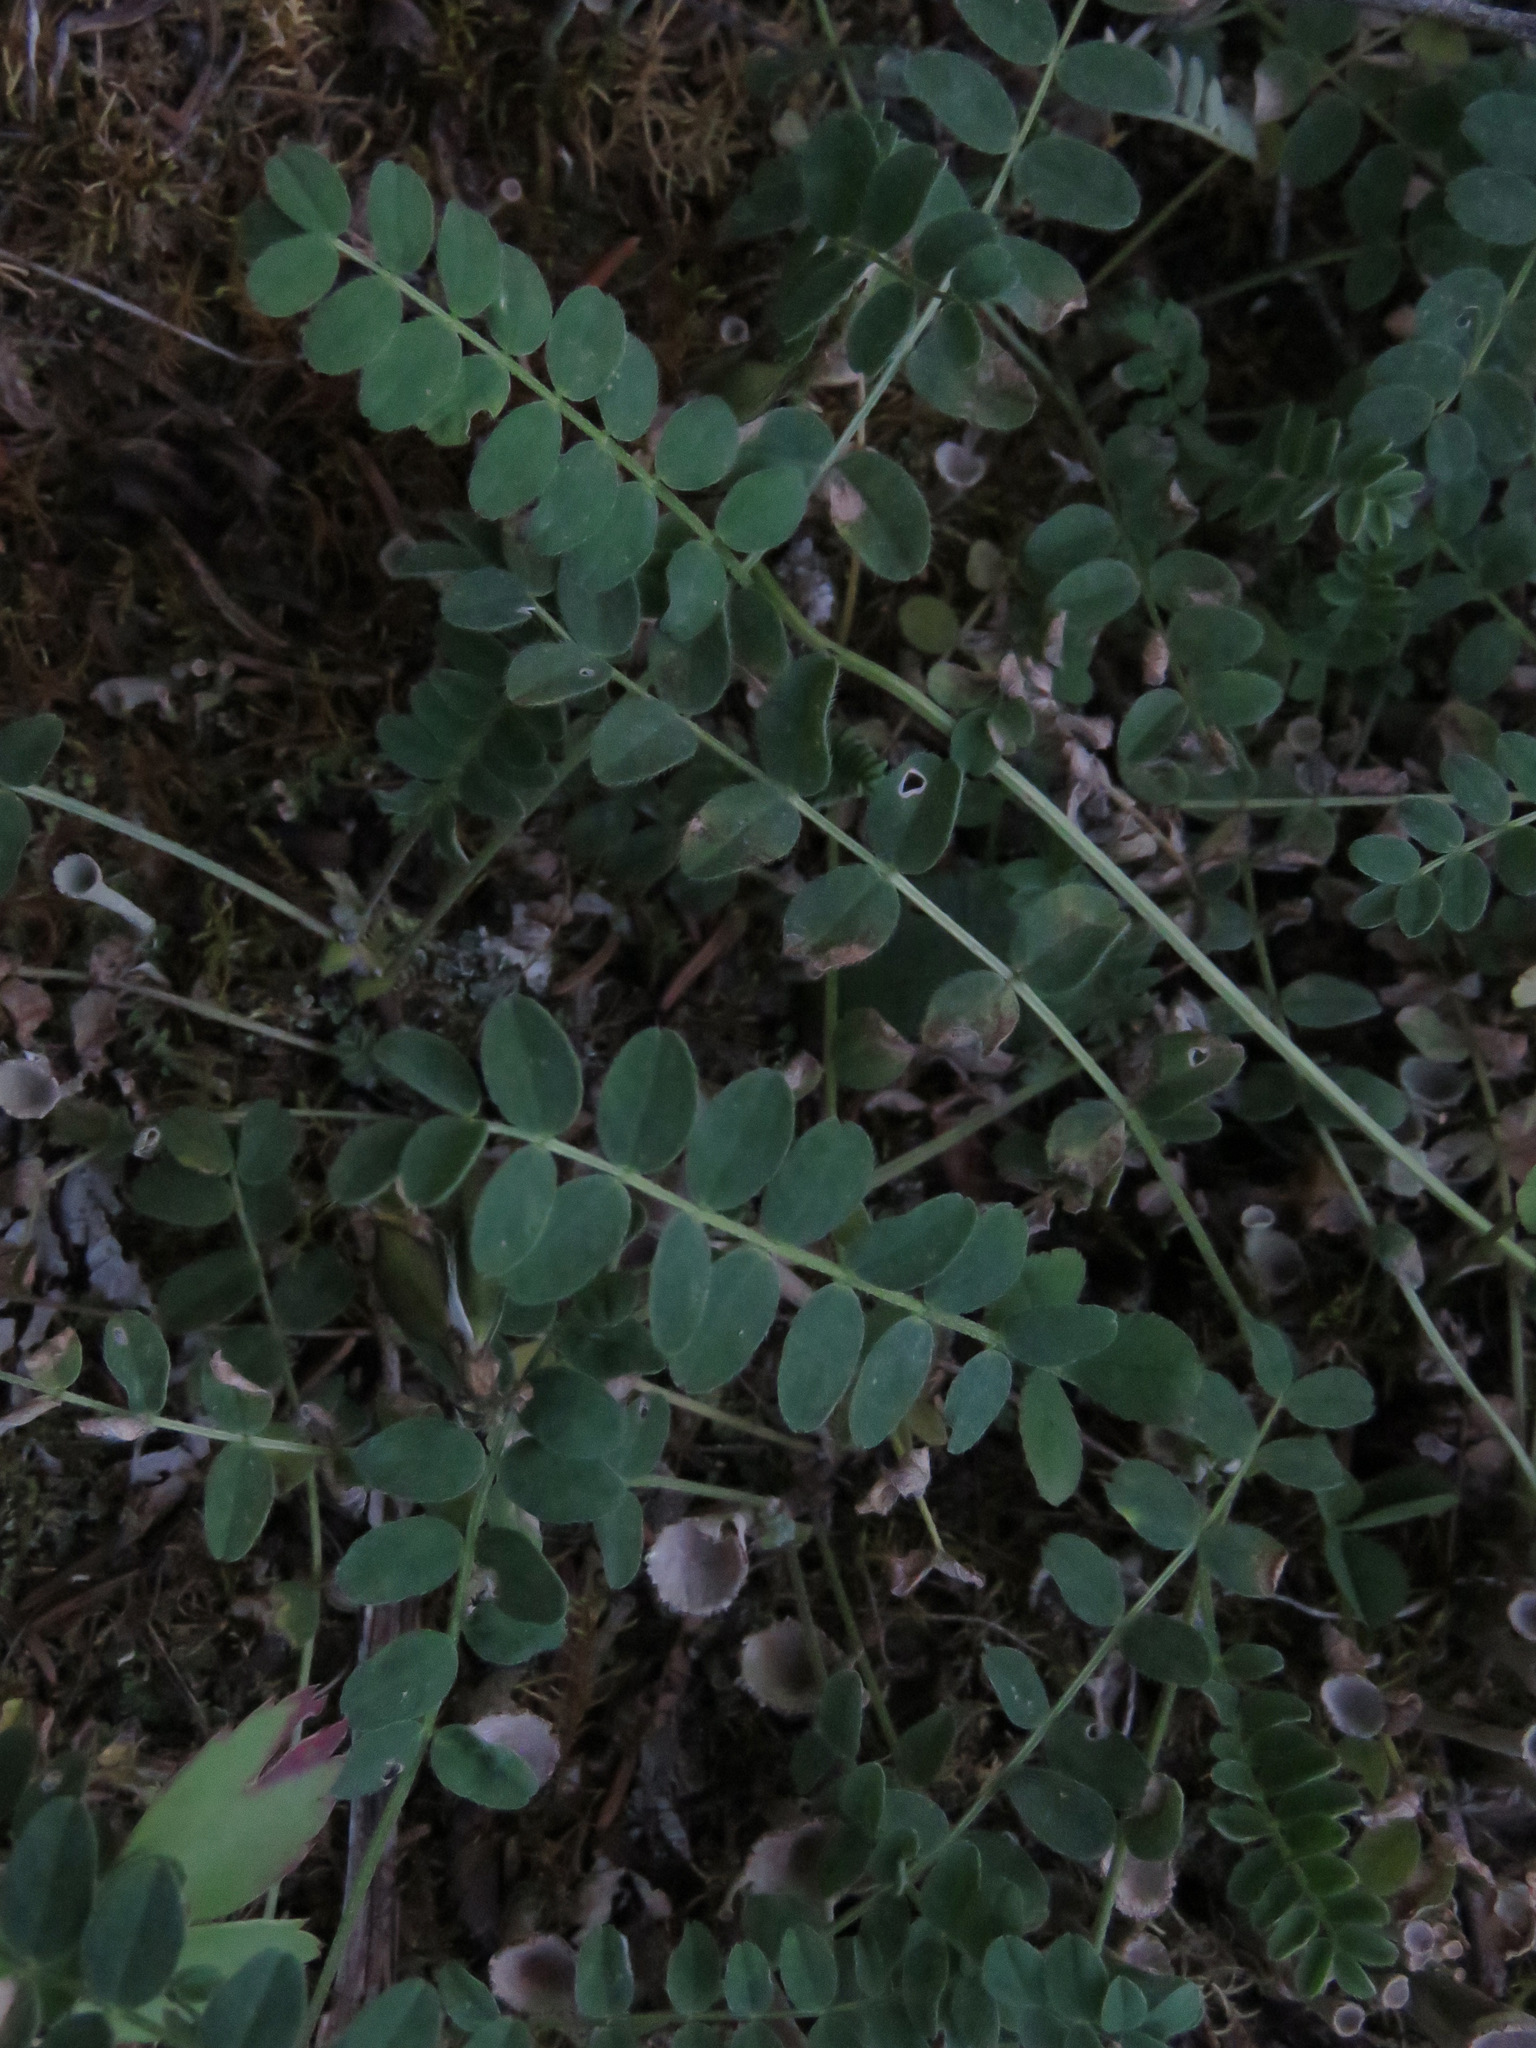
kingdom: Plantae
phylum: Tracheophyta
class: Magnoliopsida
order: Fabales
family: Fabaceae
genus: Astragalus
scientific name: Astragalus alpinus
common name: Alpine milk-vetch
